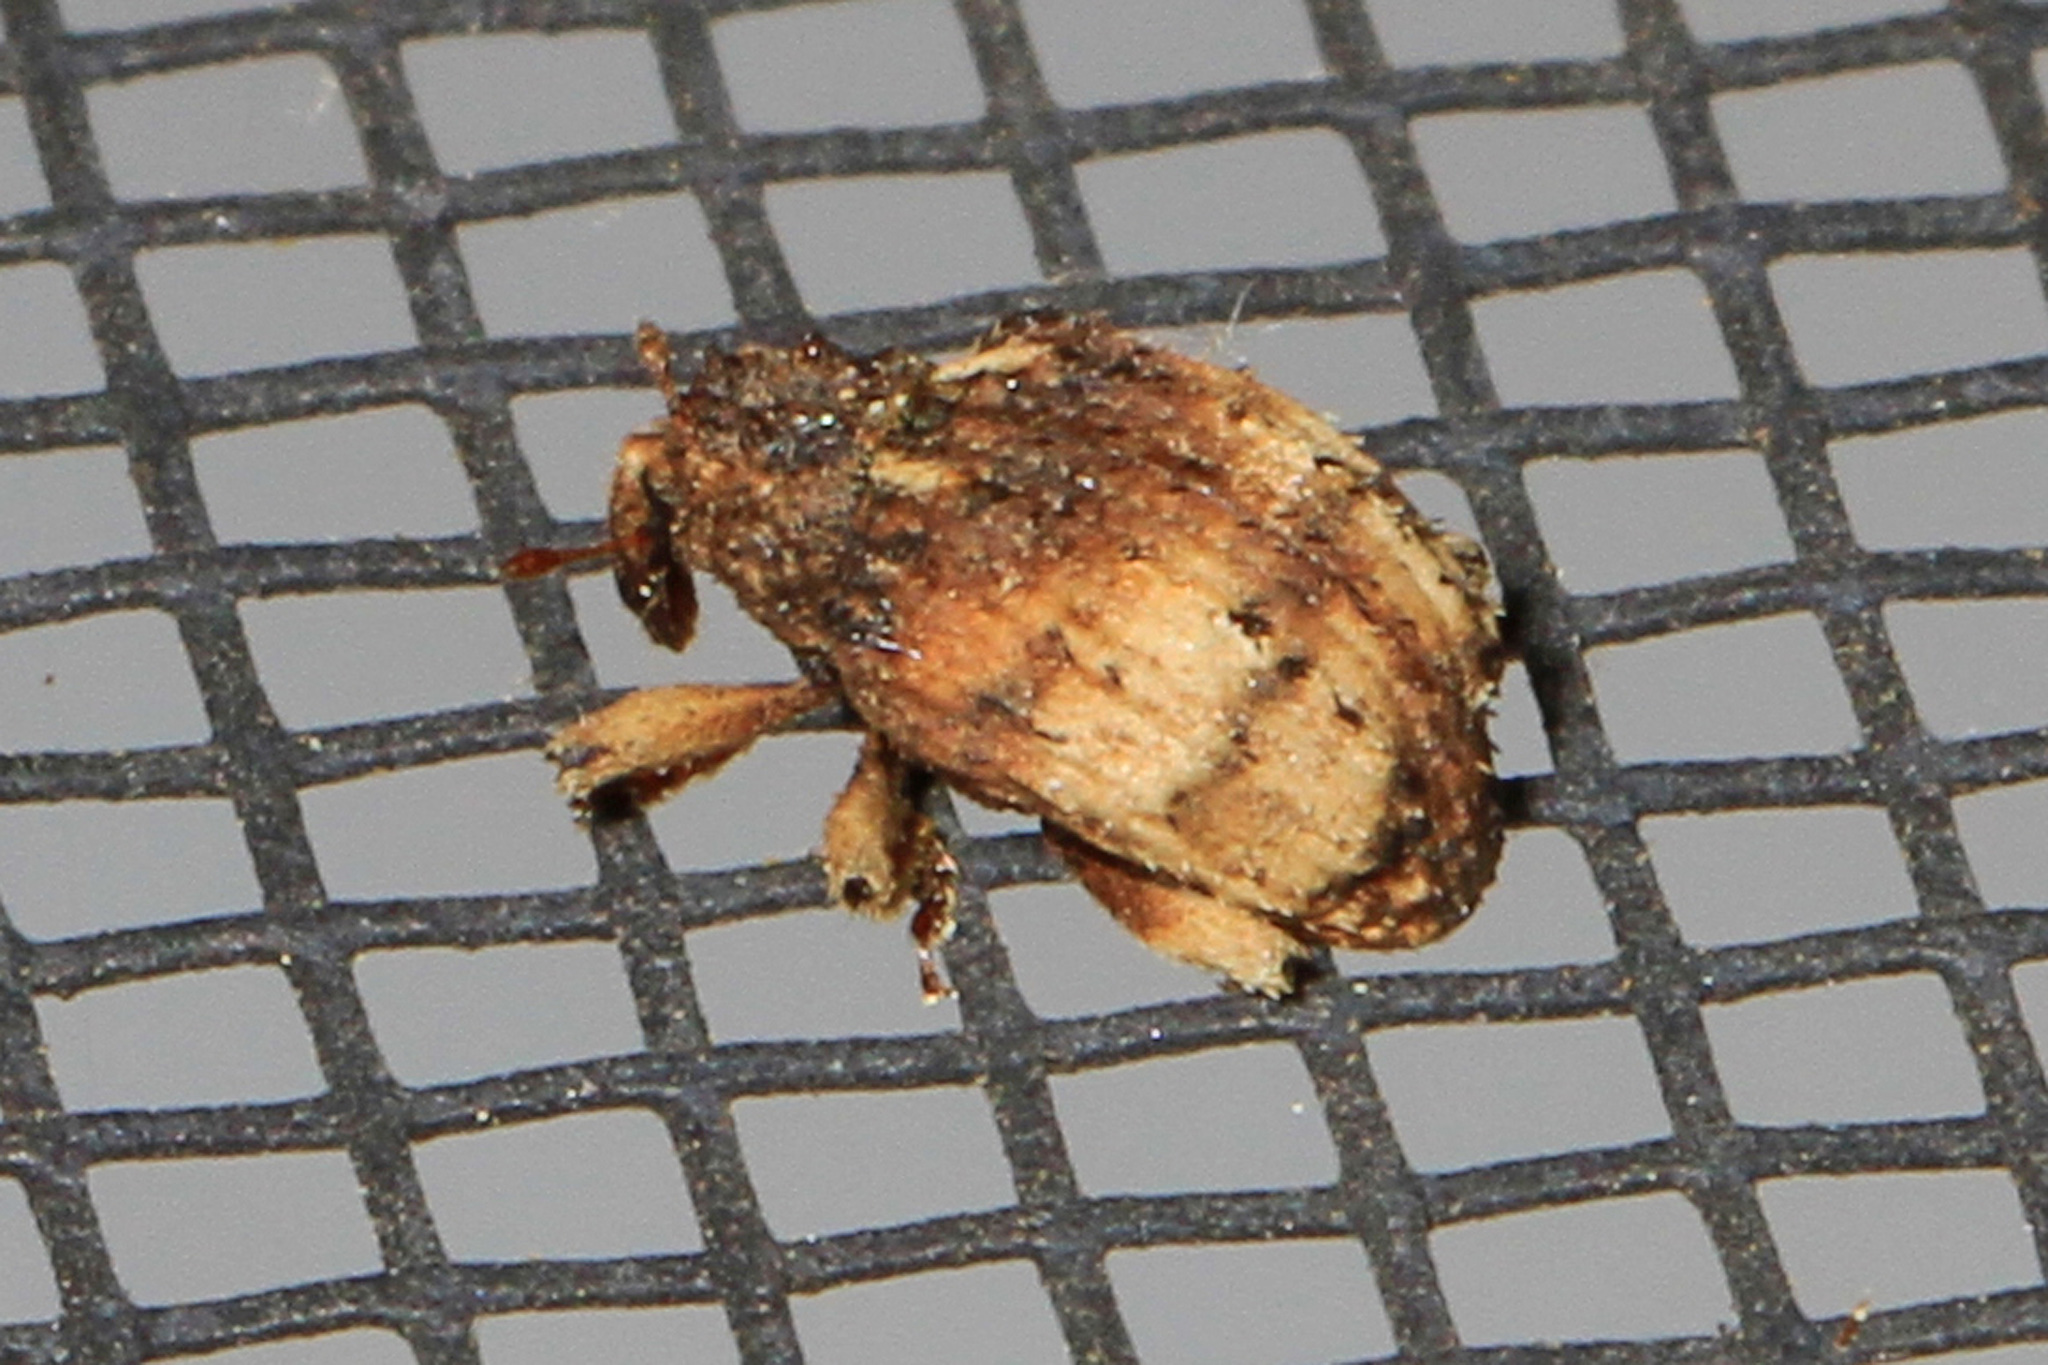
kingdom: Animalia
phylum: Arthropoda
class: Insecta
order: Coleoptera
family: Curculionidae
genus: Phyrdenus
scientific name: Phyrdenus divergens
